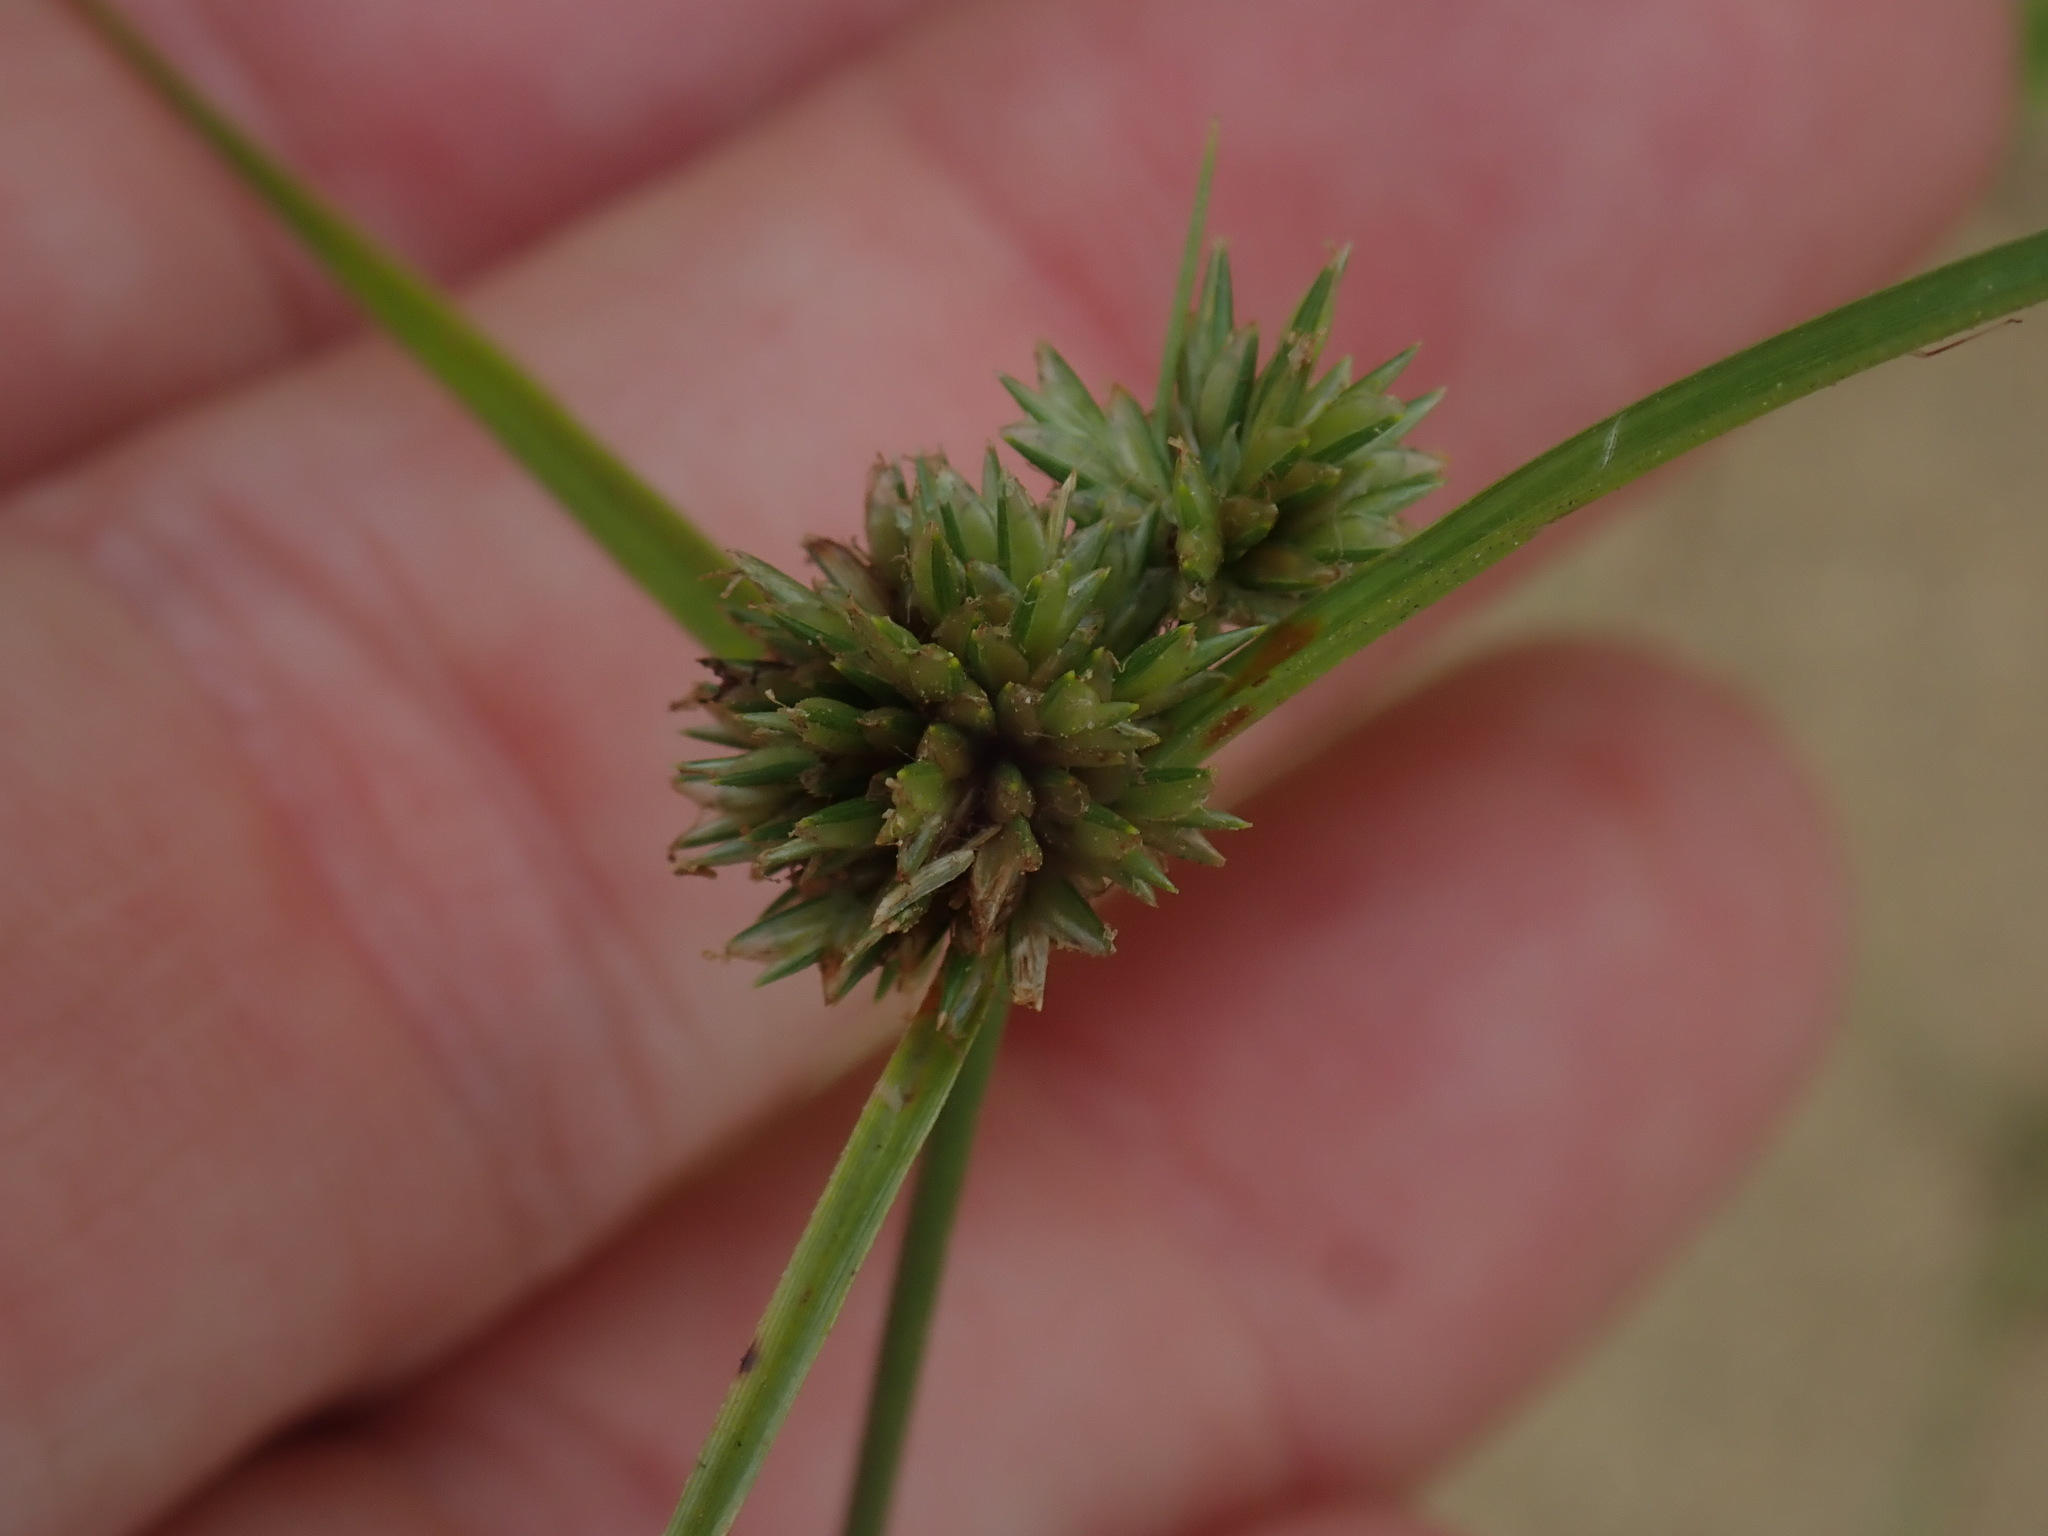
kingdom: Plantae
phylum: Tracheophyta
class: Liliopsida
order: Poales
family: Cyperaceae
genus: Cyperus
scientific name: Cyperus lupulinus
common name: Great plains flatsedge
